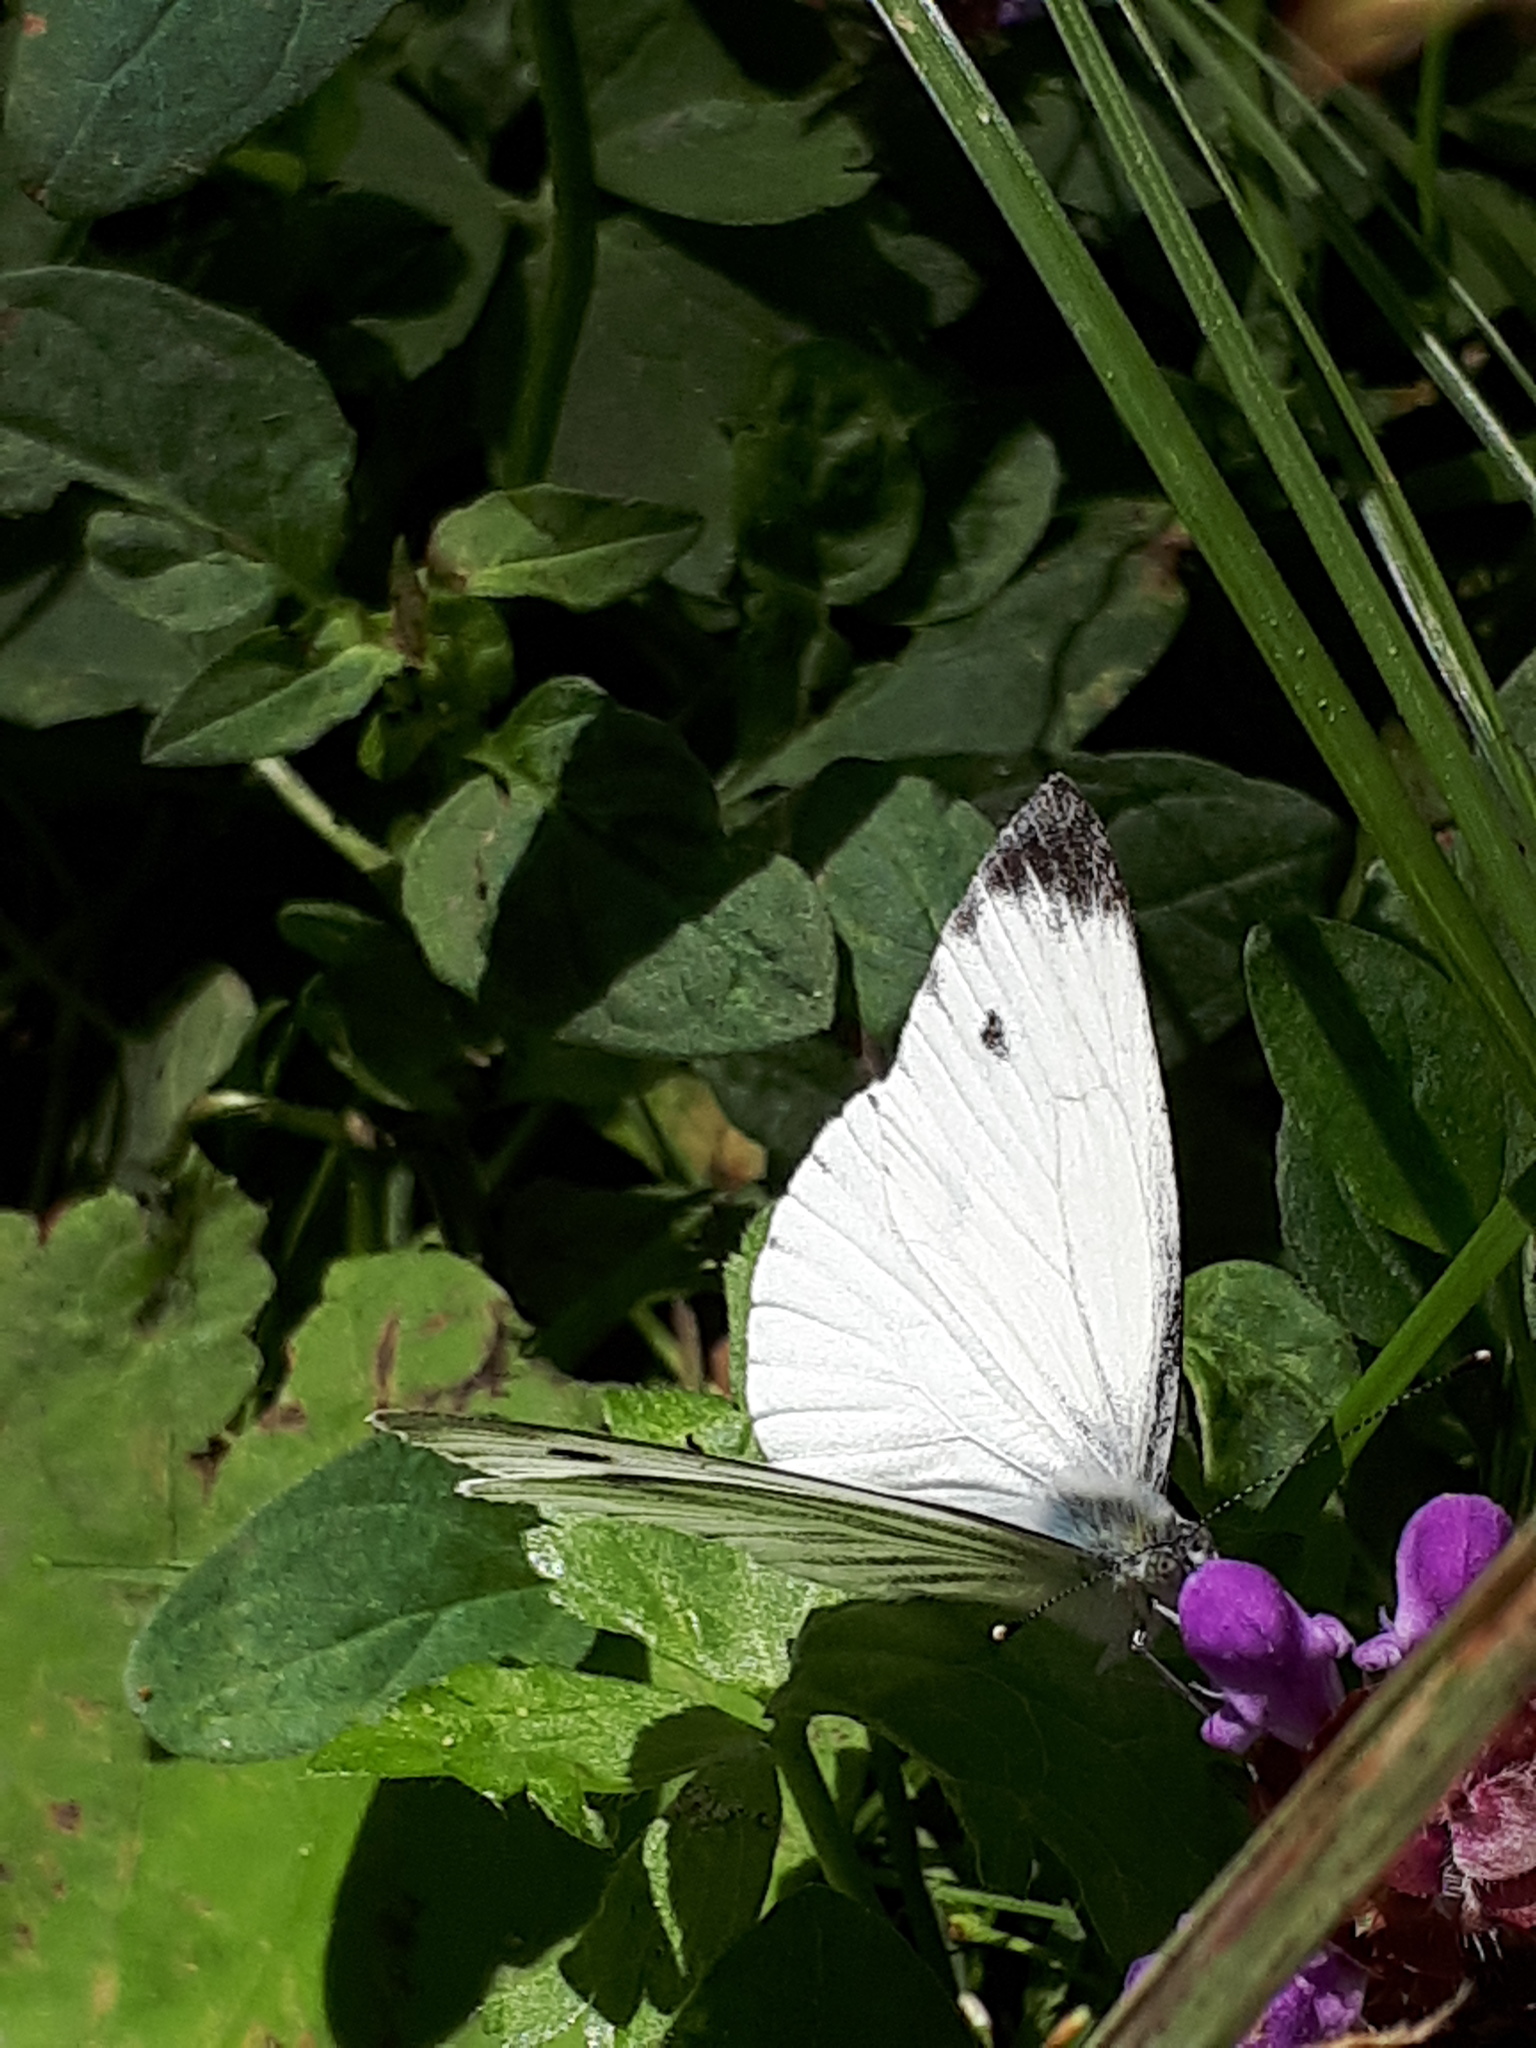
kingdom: Animalia
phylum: Arthropoda
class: Insecta
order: Lepidoptera
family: Pieridae
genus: Pieris
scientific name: Pieris napi
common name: Green-veined white
